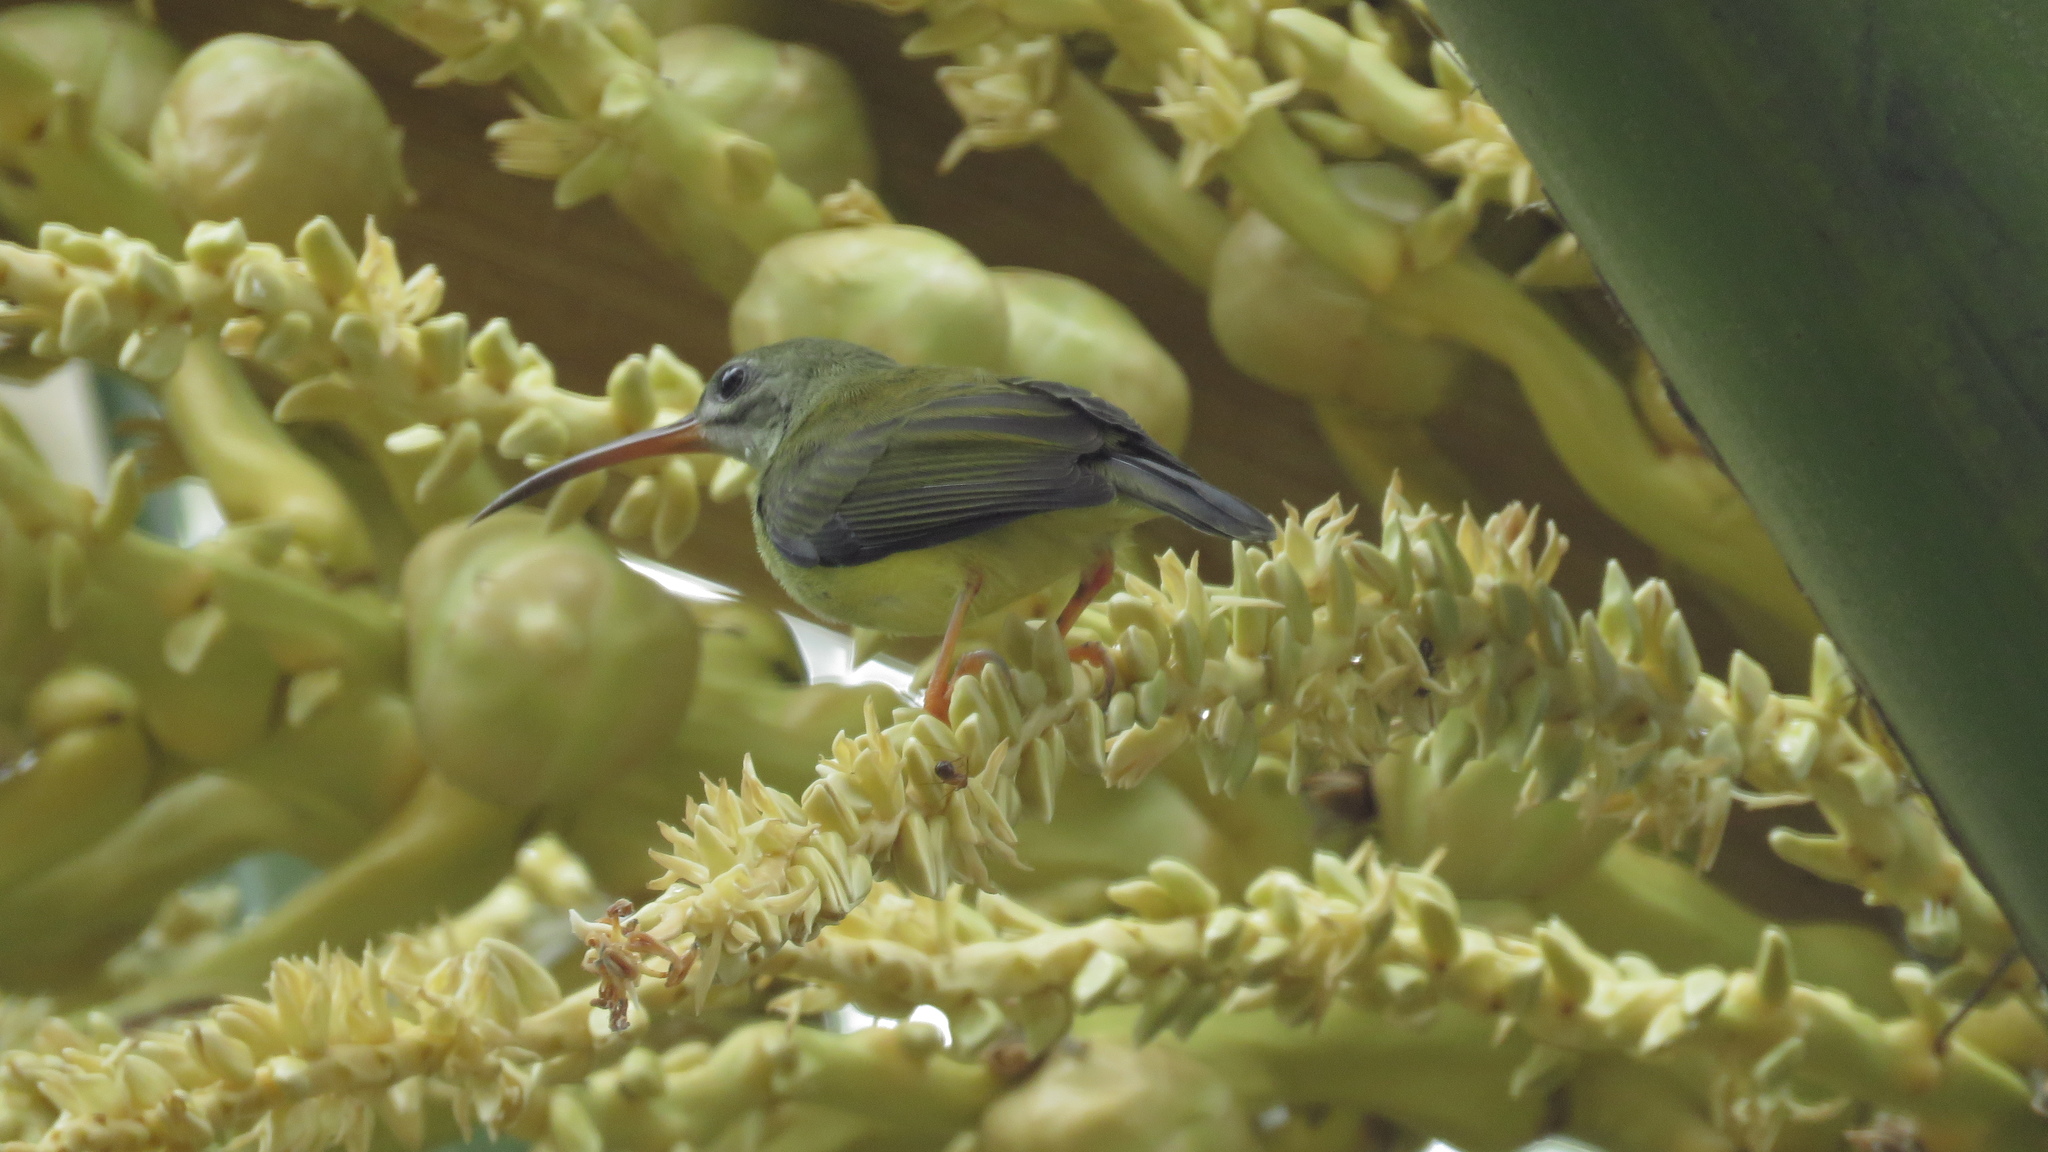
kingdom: Animalia
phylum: Chordata
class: Aves
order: Passeriformes
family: Nectariniidae
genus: Arachnothera
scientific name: Arachnothera longirostra
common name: Little spiderhunter
